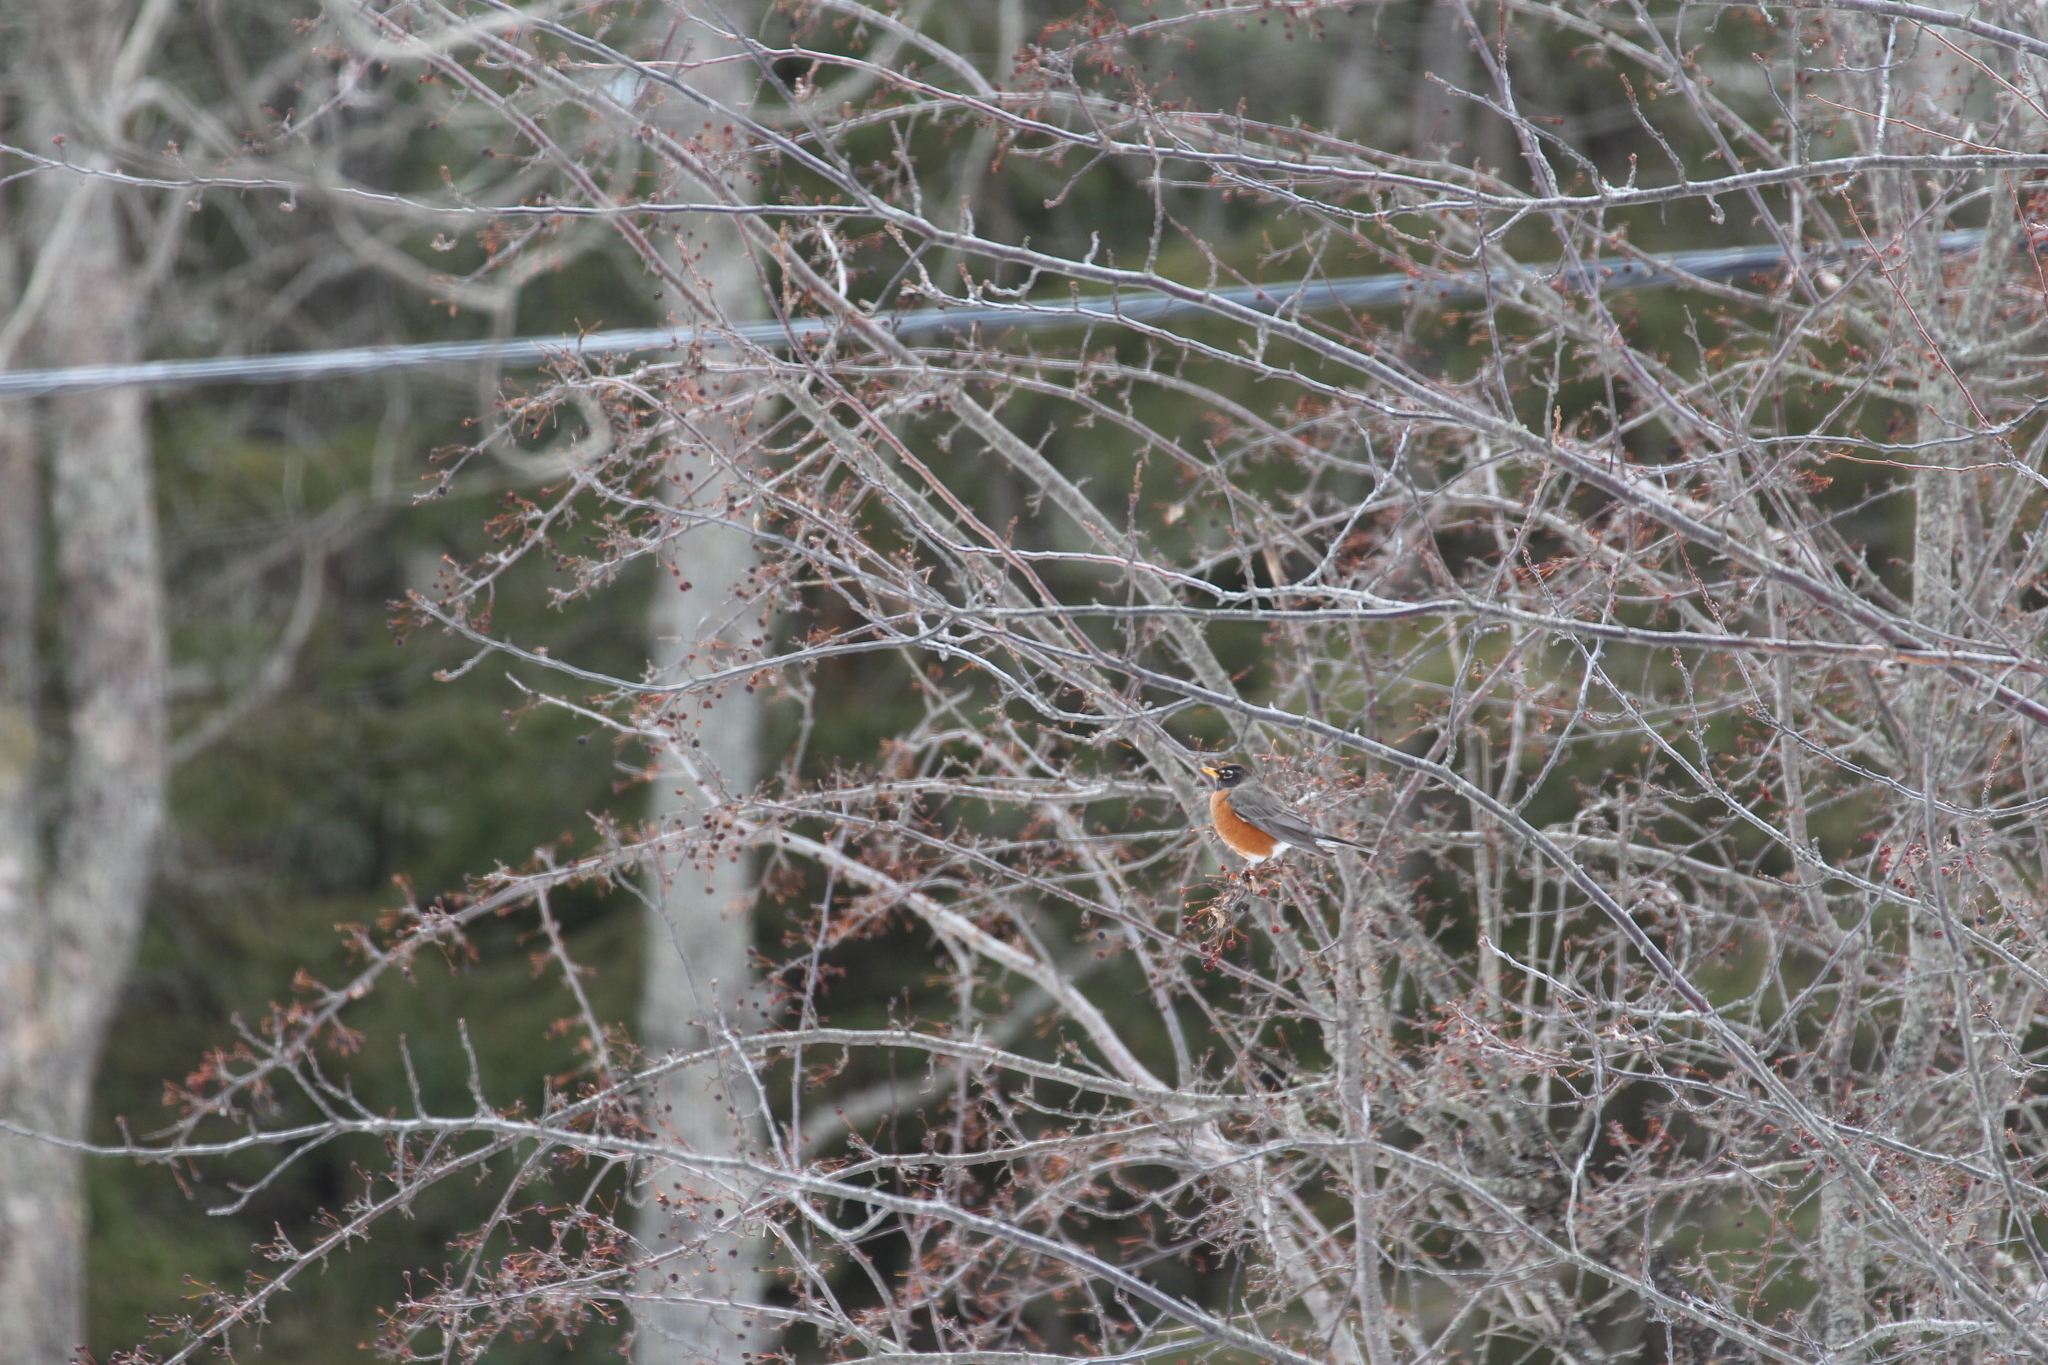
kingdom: Animalia
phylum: Chordata
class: Aves
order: Passeriformes
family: Turdidae
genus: Turdus
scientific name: Turdus migratorius
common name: American robin
